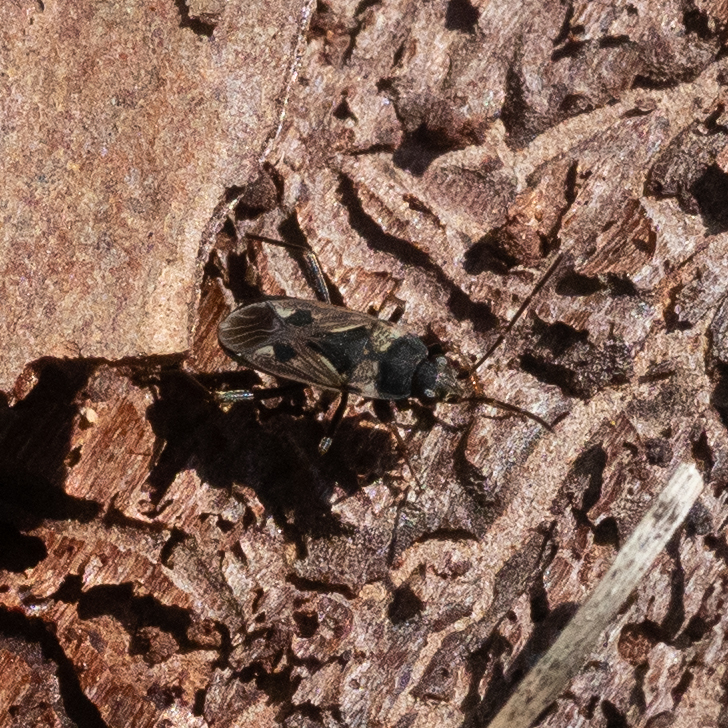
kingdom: Animalia
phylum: Arthropoda
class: Insecta
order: Hemiptera
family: Rhyparochromidae
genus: Rhyparochromus
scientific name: Rhyparochromus vulgaris
